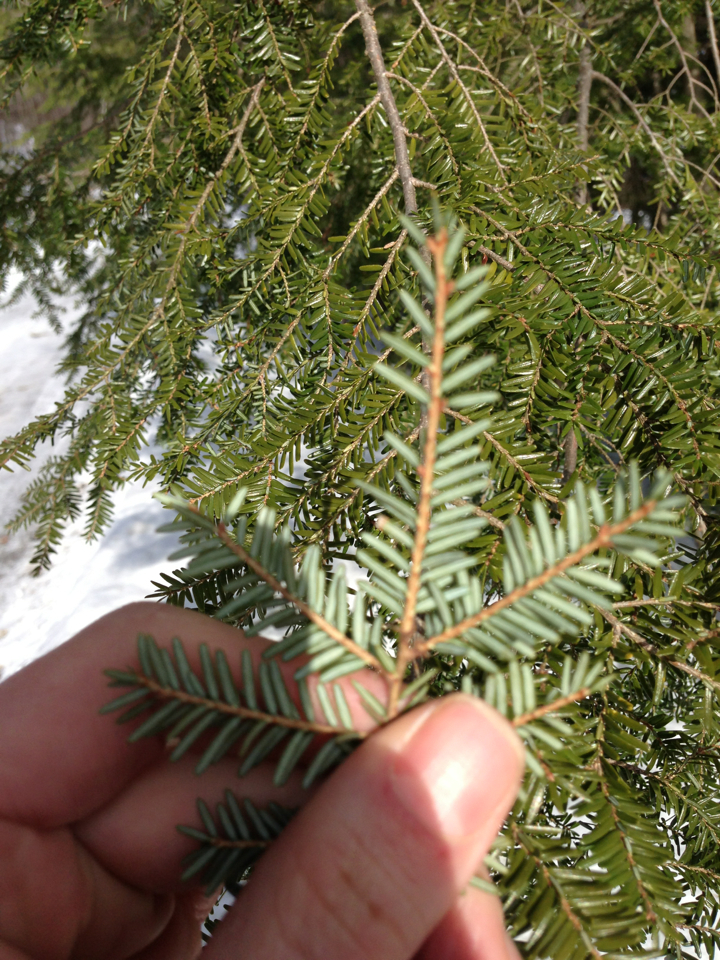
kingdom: Plantae
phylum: Tracheophyta
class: Pinopsida
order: Pinales
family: Pinaceae
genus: Tsuga
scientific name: Tsuga canadensis
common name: Eastern hemlock
